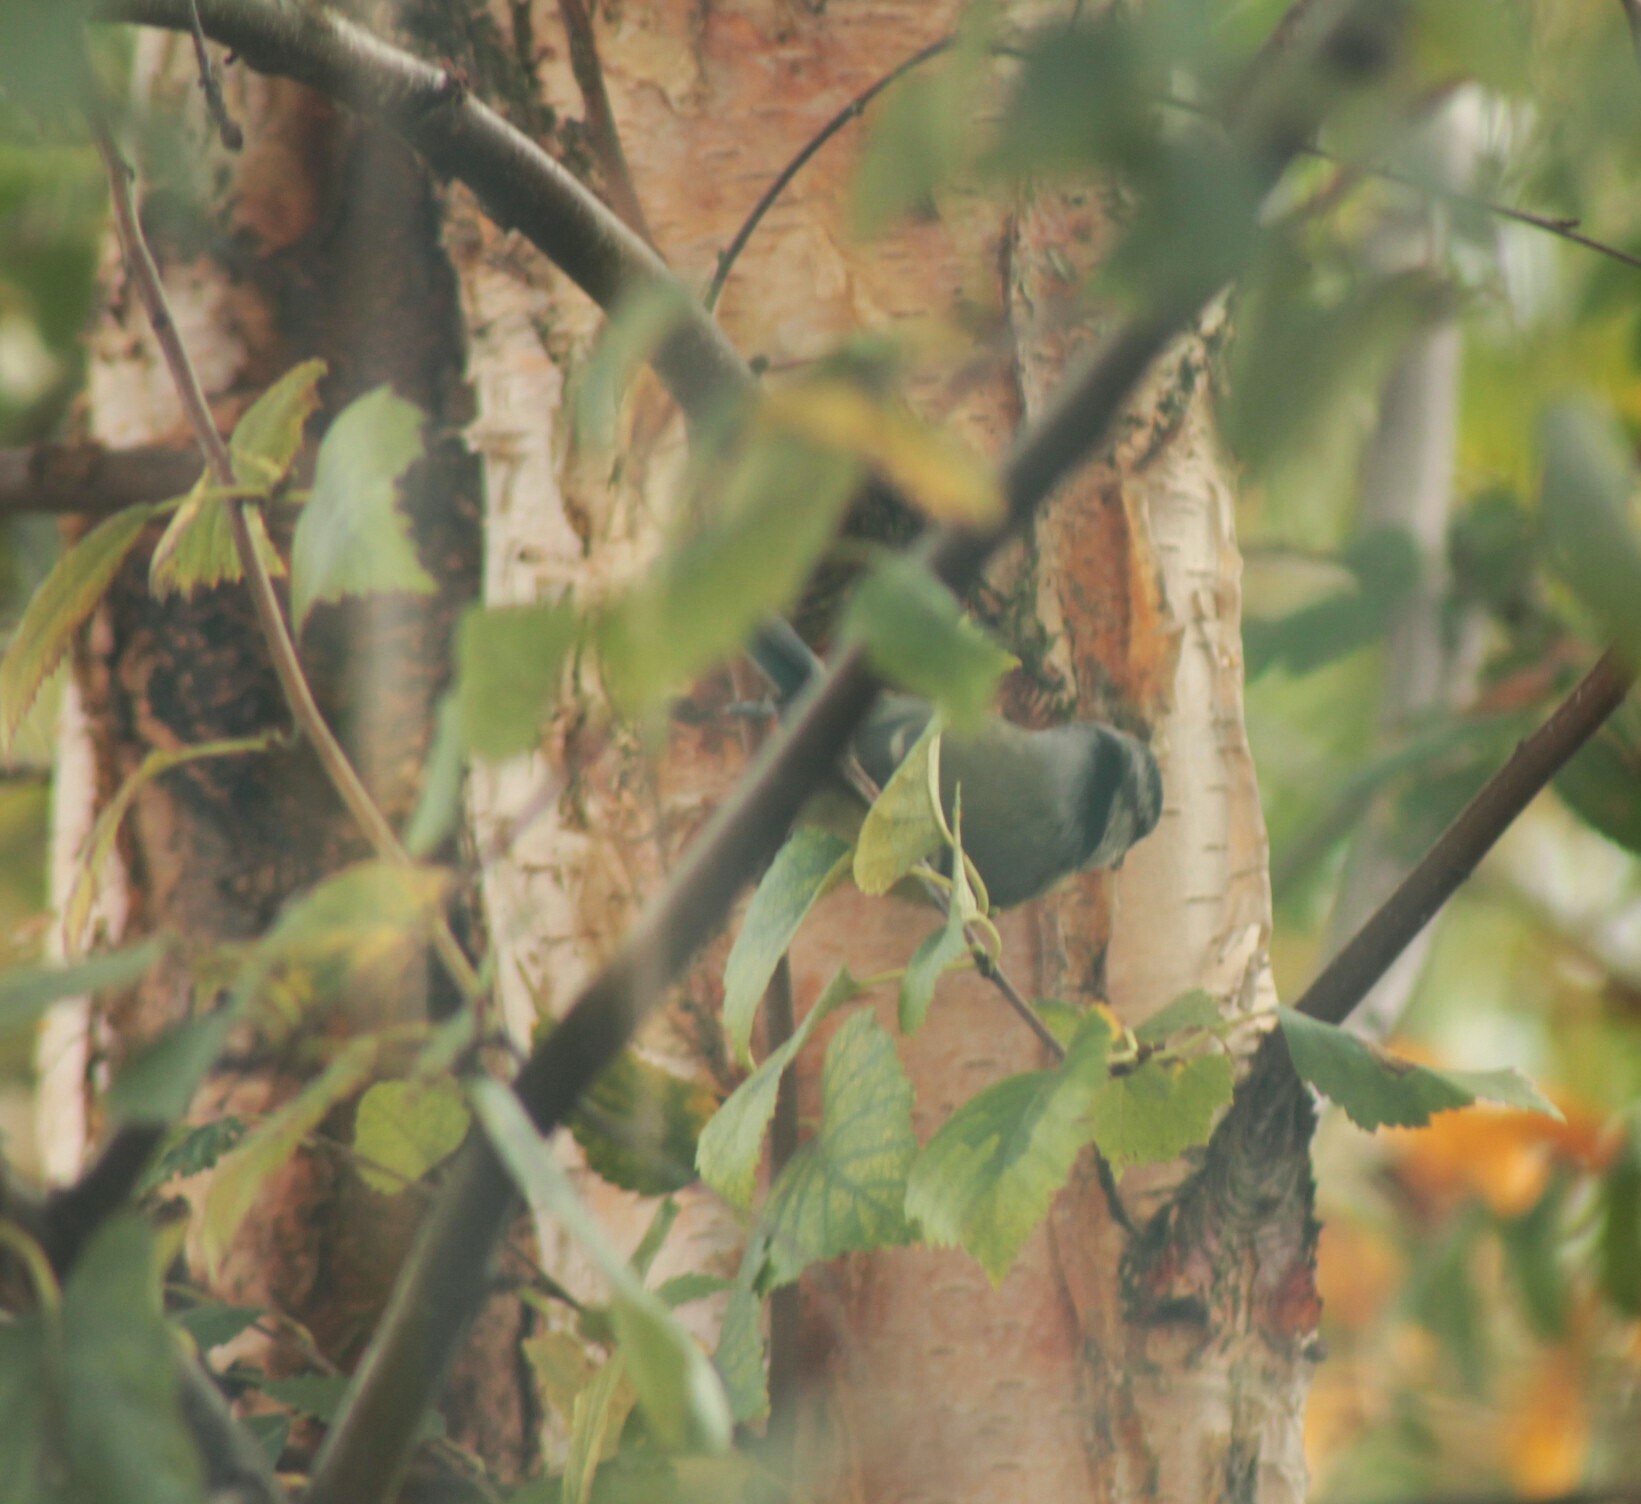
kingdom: Animalia
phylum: Chordata
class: Aves
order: Passeriformes
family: Paridae
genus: Cyanistes
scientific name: Cyanistes caeruleus
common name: Eurasian blue tit
